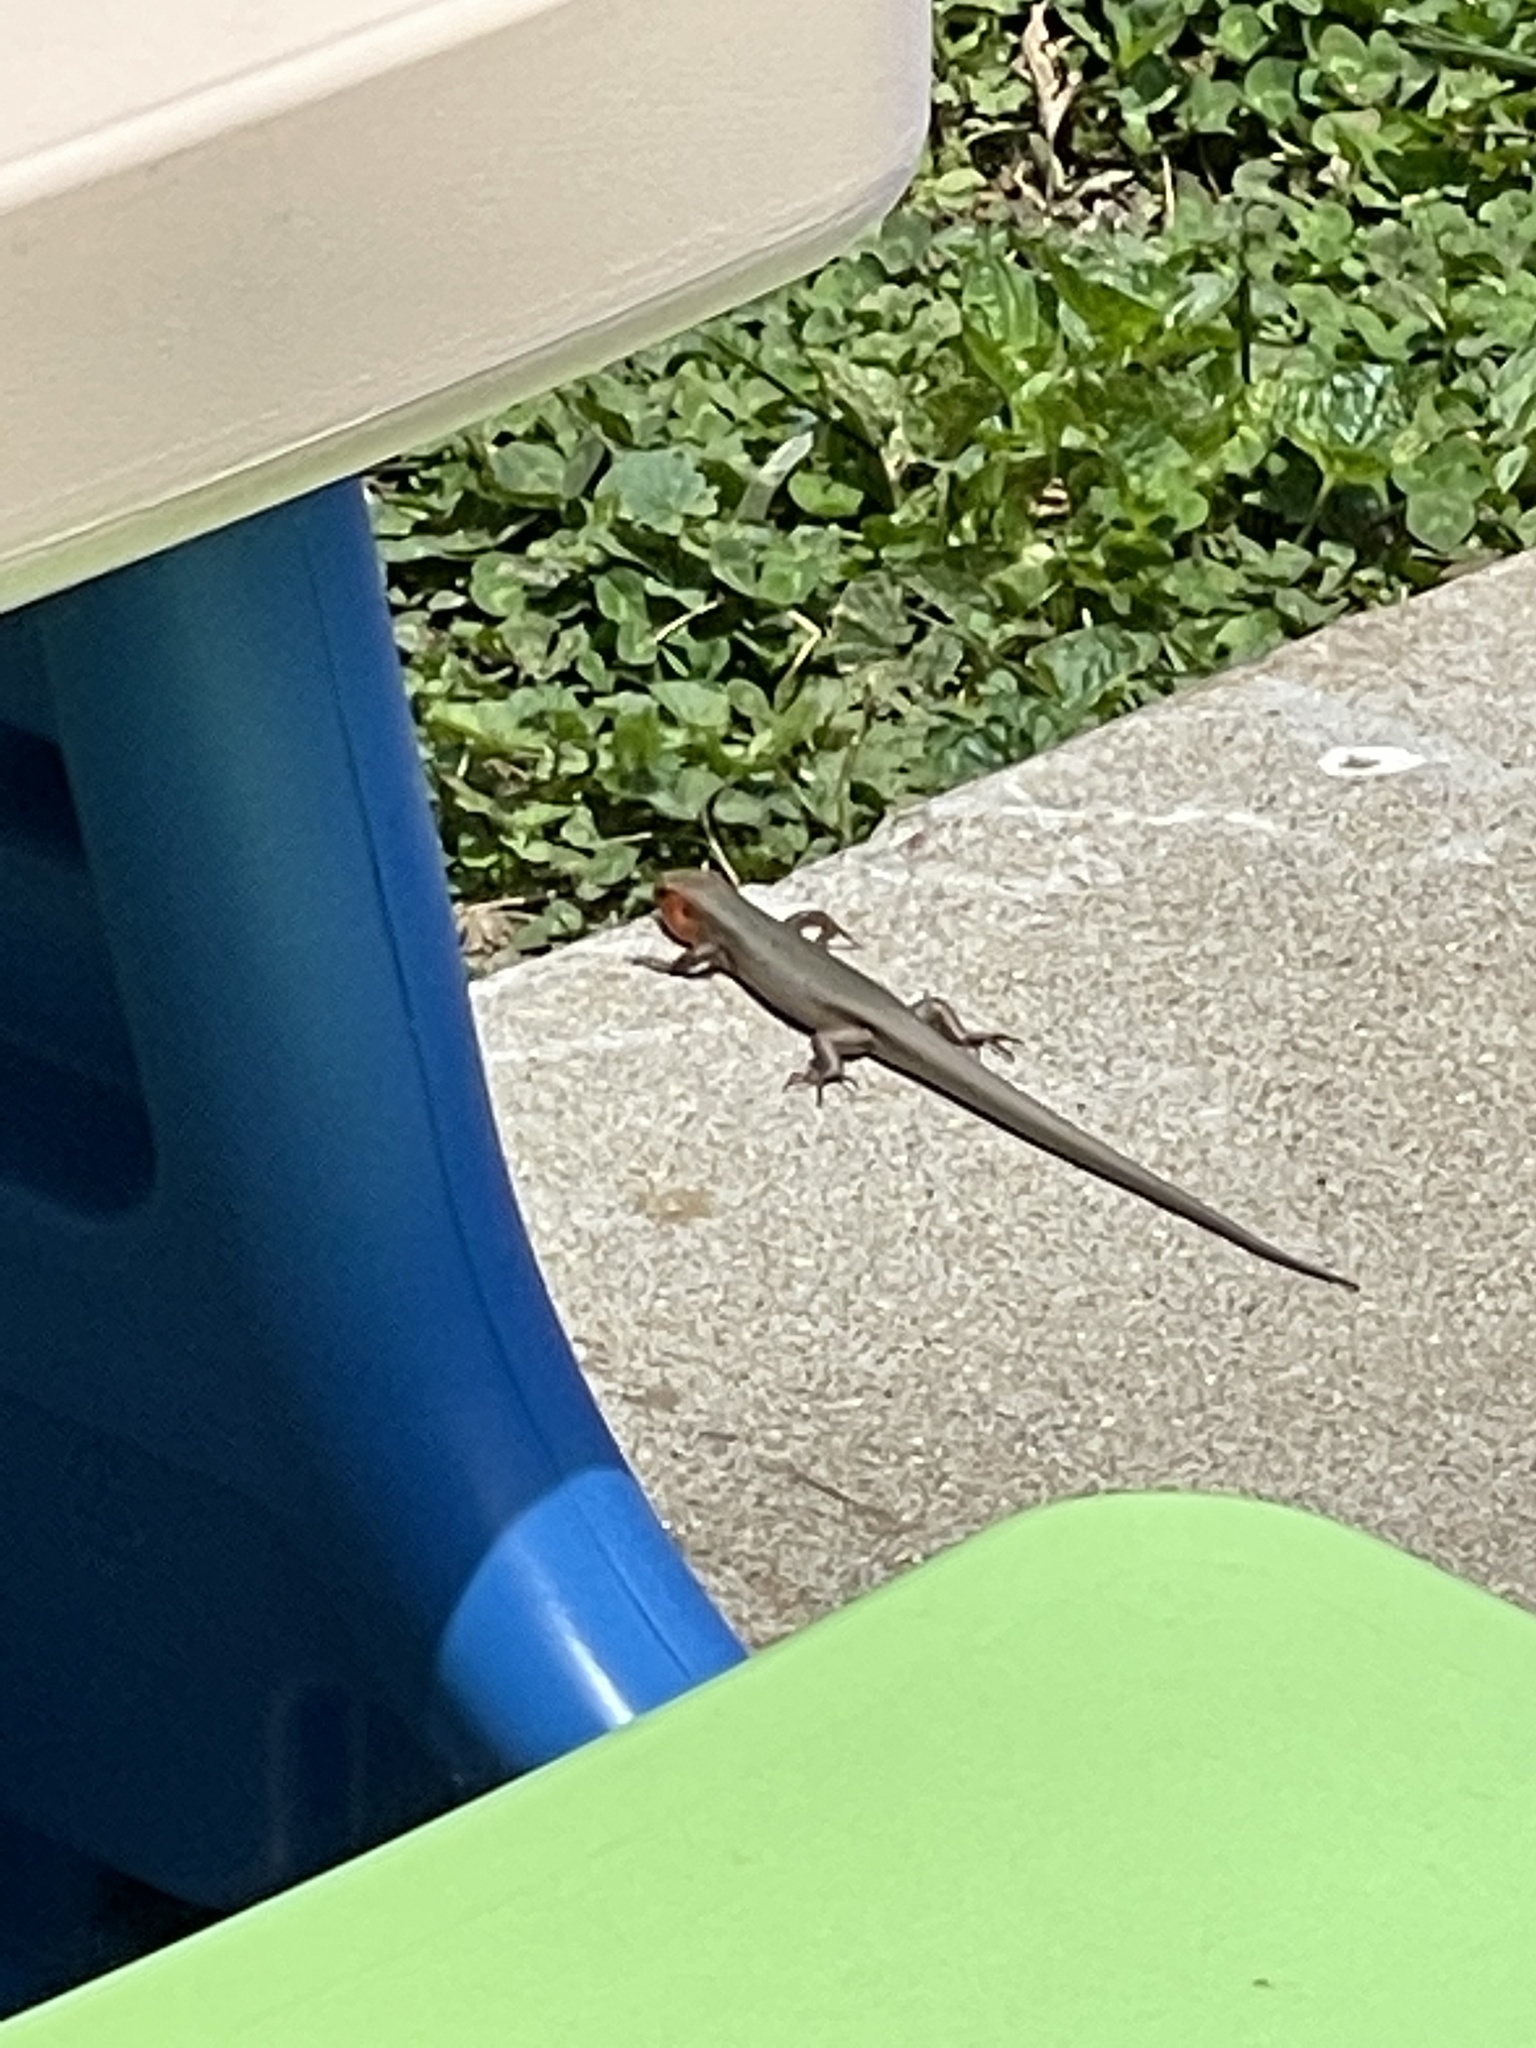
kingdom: Animalia
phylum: Chordata
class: Squamata
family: Scincidae
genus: Plestiodon
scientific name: Plestiodon fasciatus
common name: Five-lined skink
